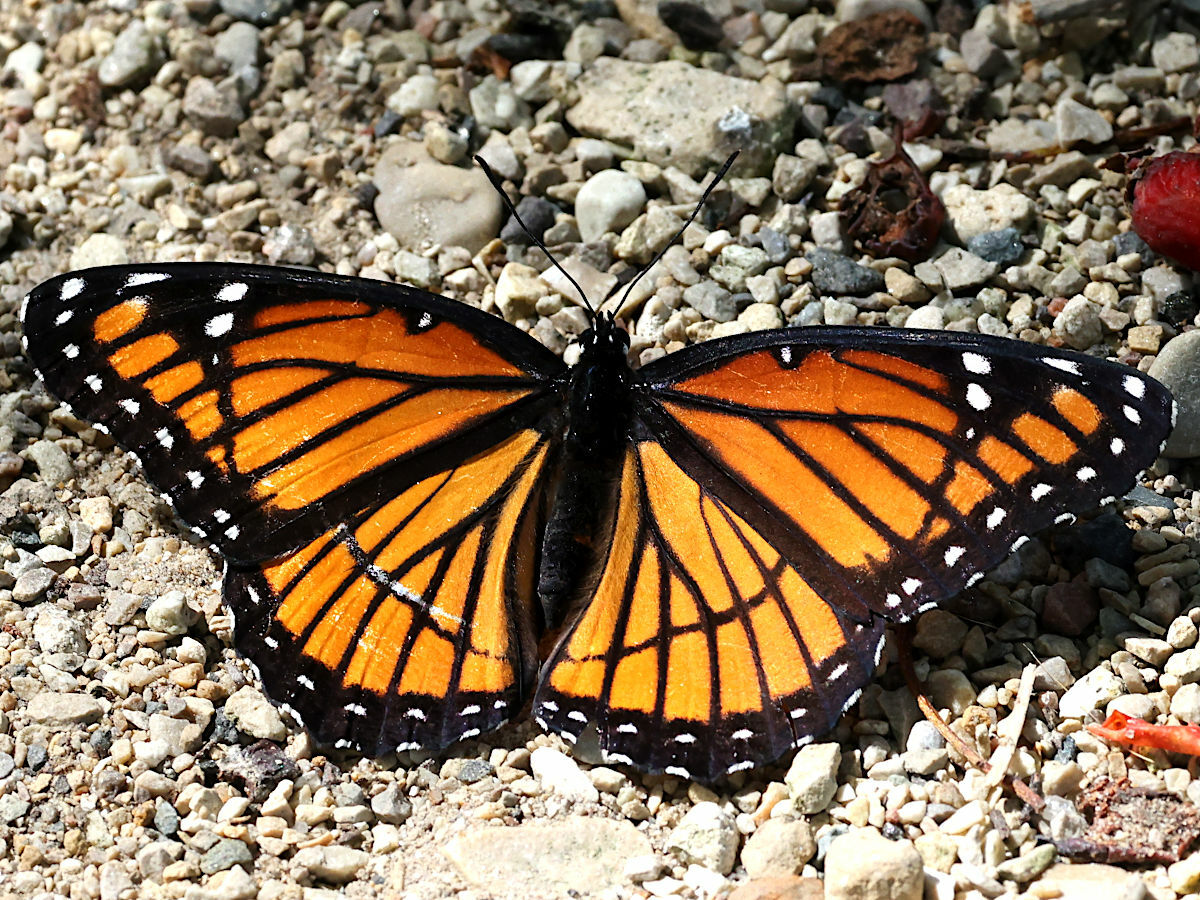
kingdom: Animalia
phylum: Arthropoda
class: Insecta
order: Lepidoptera
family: Nymphalidae
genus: Limenitis
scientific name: Limenitis archippus
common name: Viceroy
